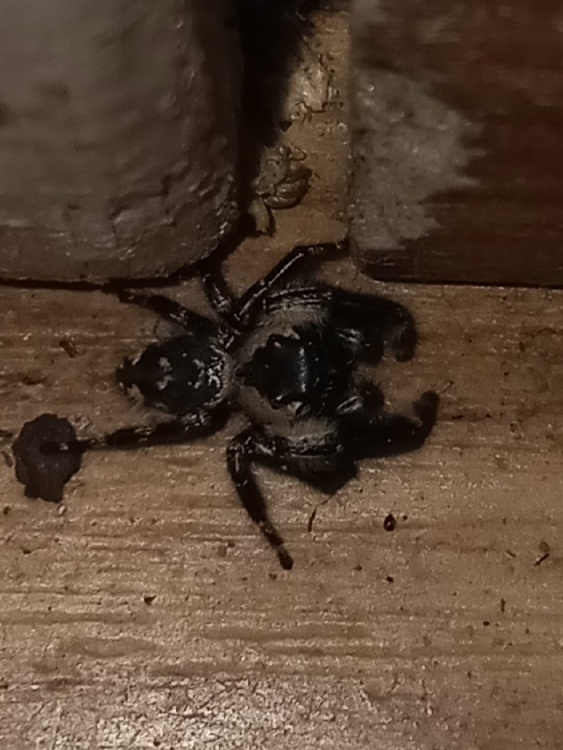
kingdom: Animalia
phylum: Arthropoda
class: Arachnida
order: Araneae
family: Salticidae
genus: Phidippus
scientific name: Phidippus otiosus
